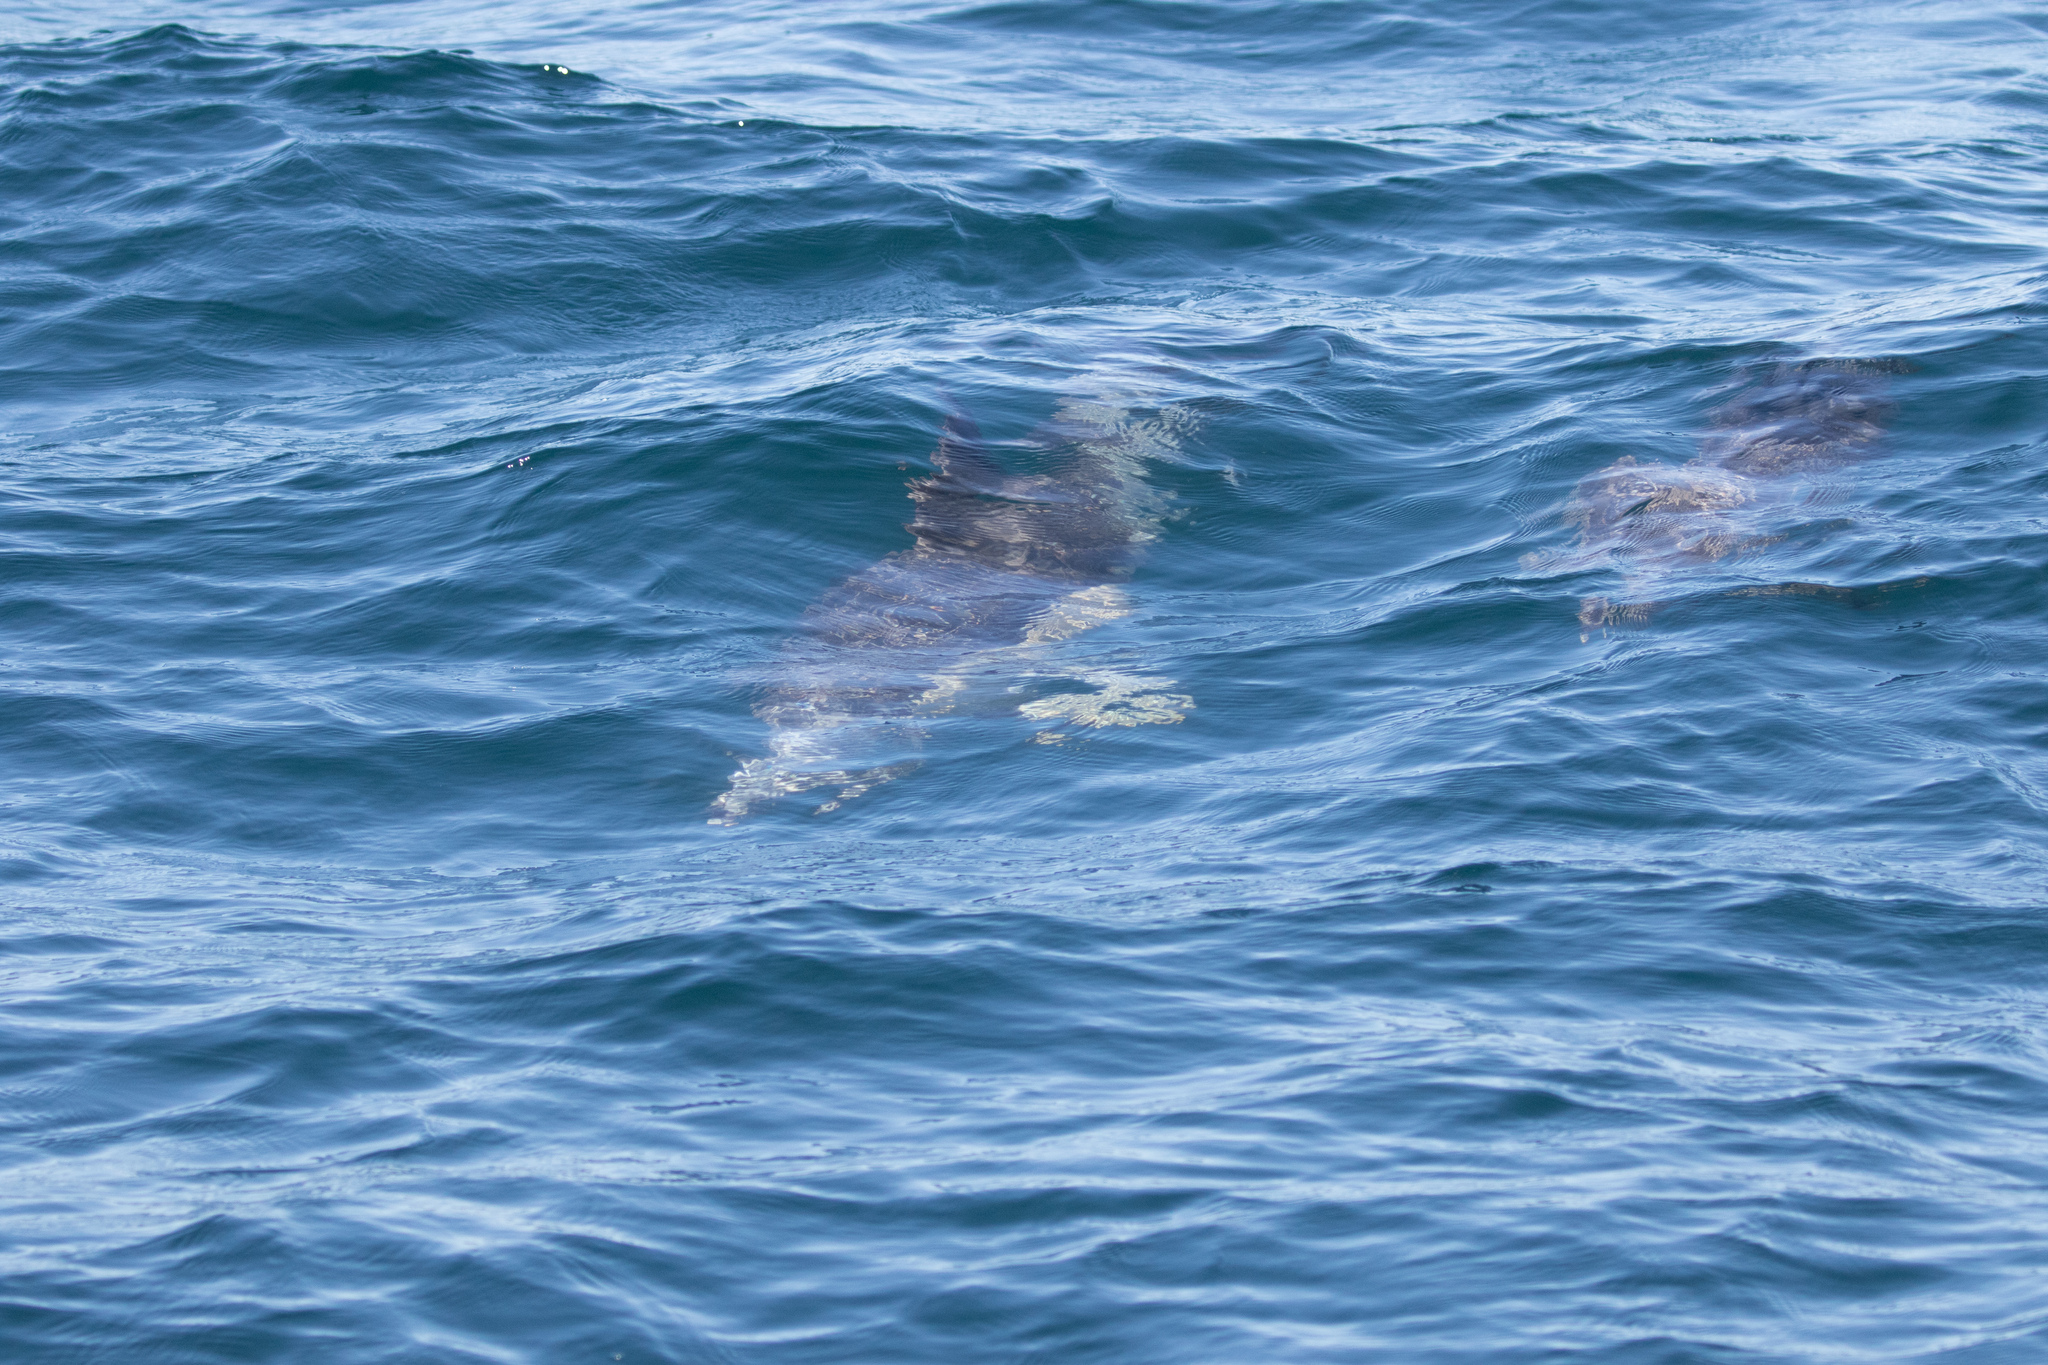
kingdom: Animalia
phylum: Chordata
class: Mammalia
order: Cetacea
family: Delphinidae
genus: Delphinus
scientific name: Delphinus delphis
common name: Common dolphin
